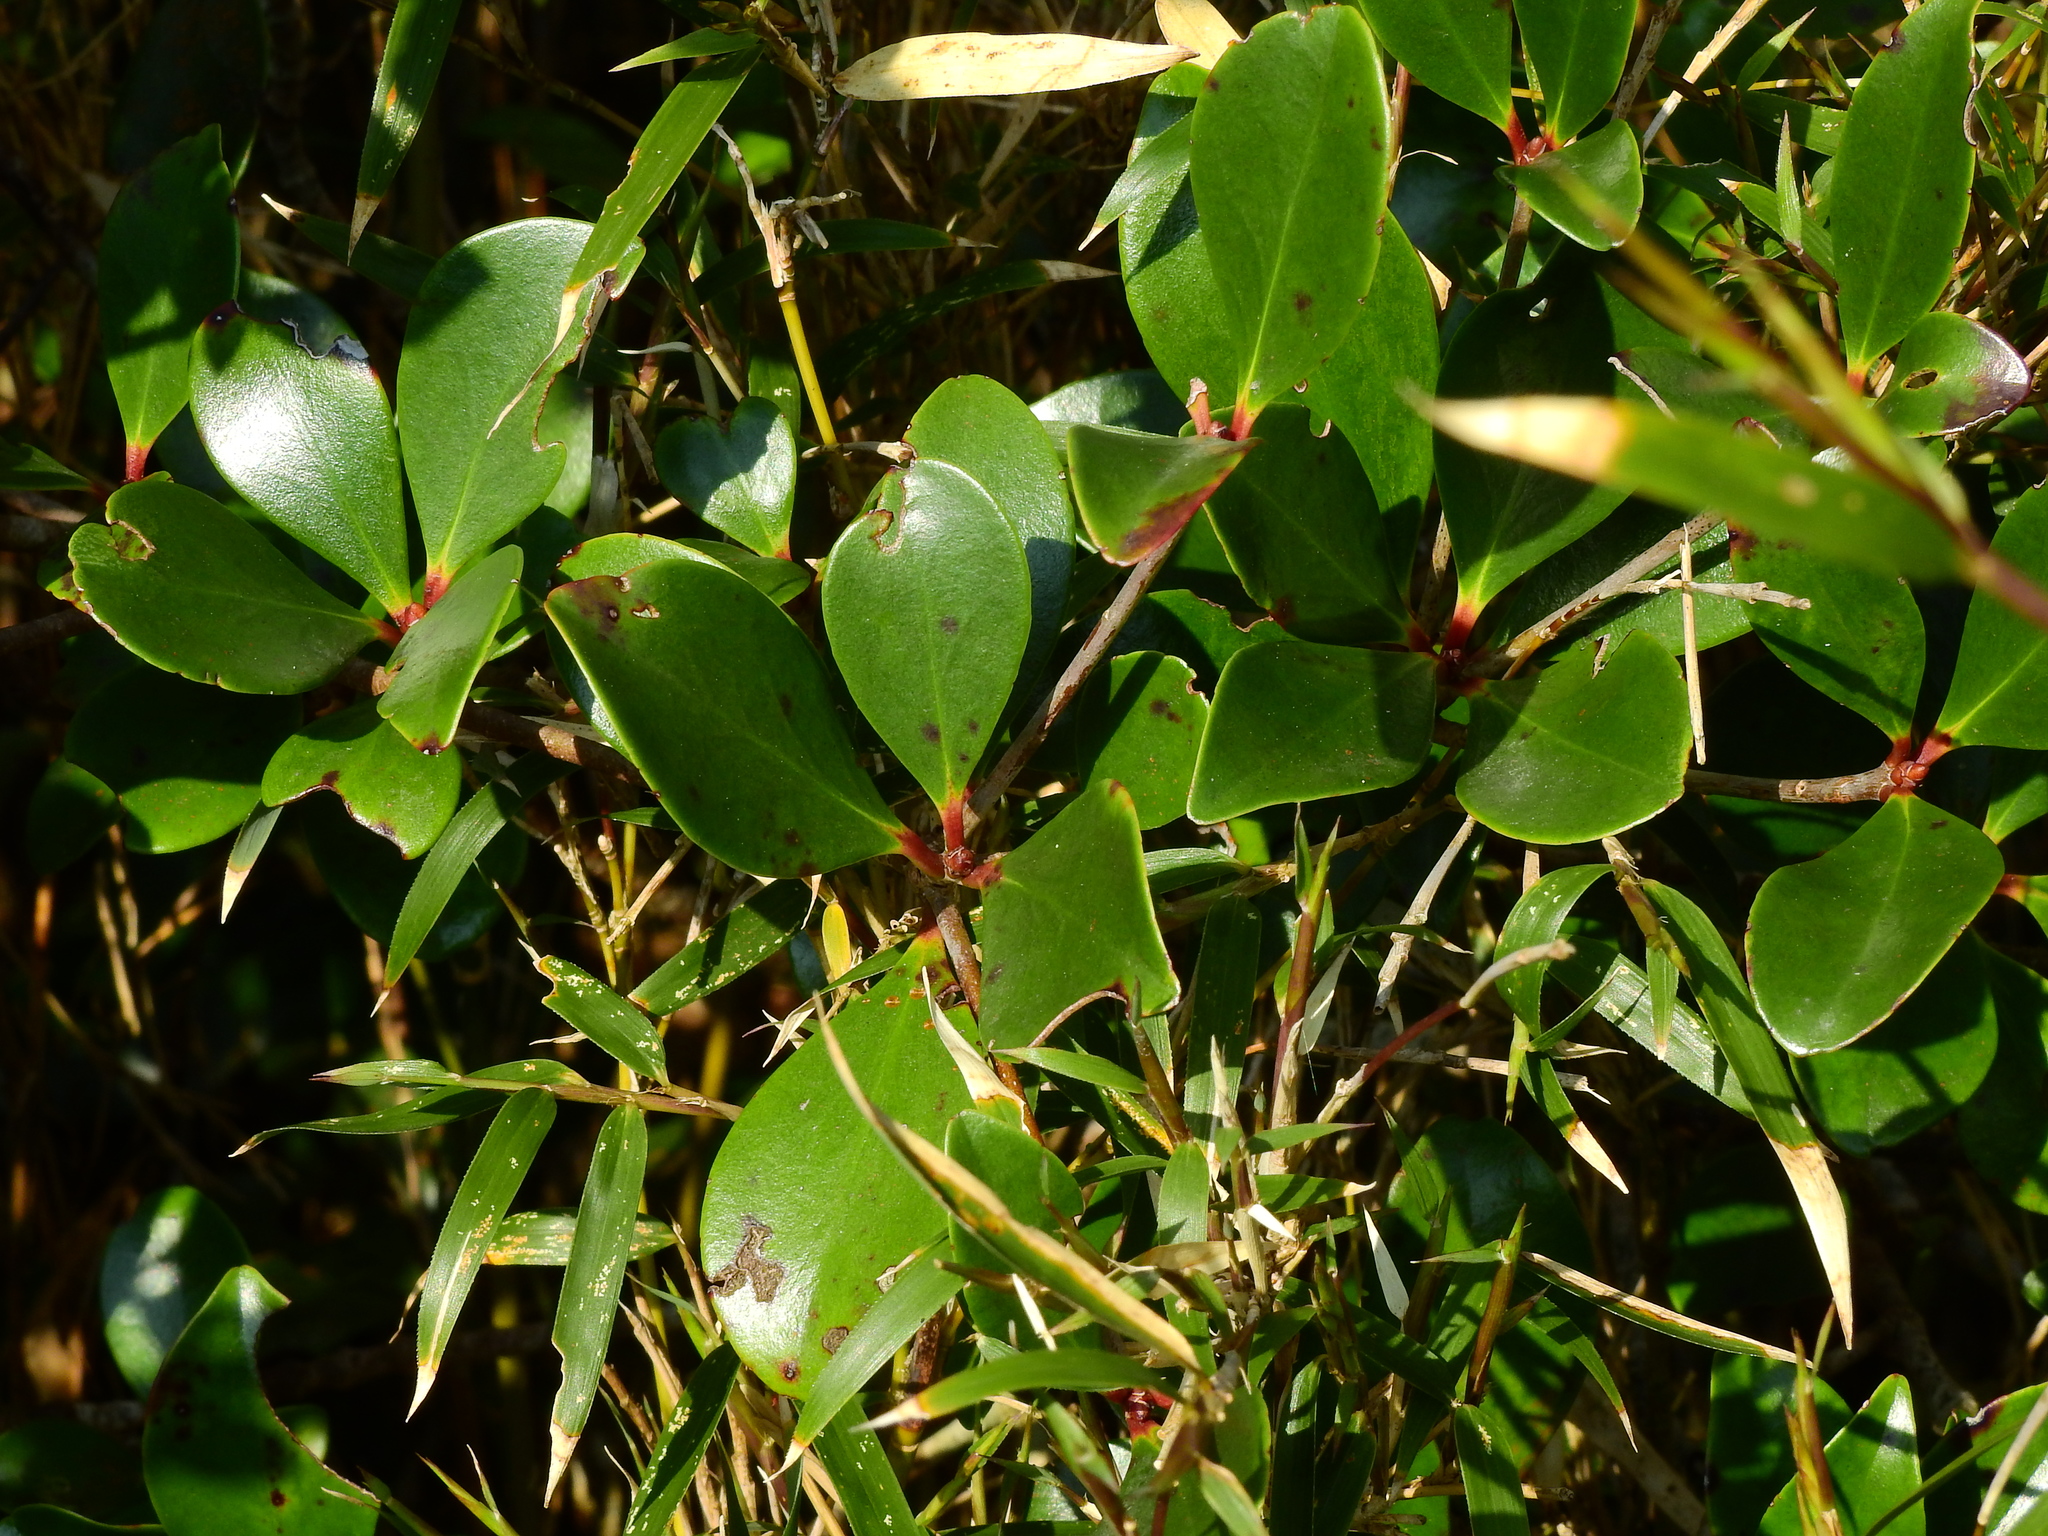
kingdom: Plantae
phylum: Tracheophyta
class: Magnoliopsida
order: Ericales
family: Pentaphylacaceae
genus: Ternstroemia
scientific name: Ternstroemia gymnanthera
